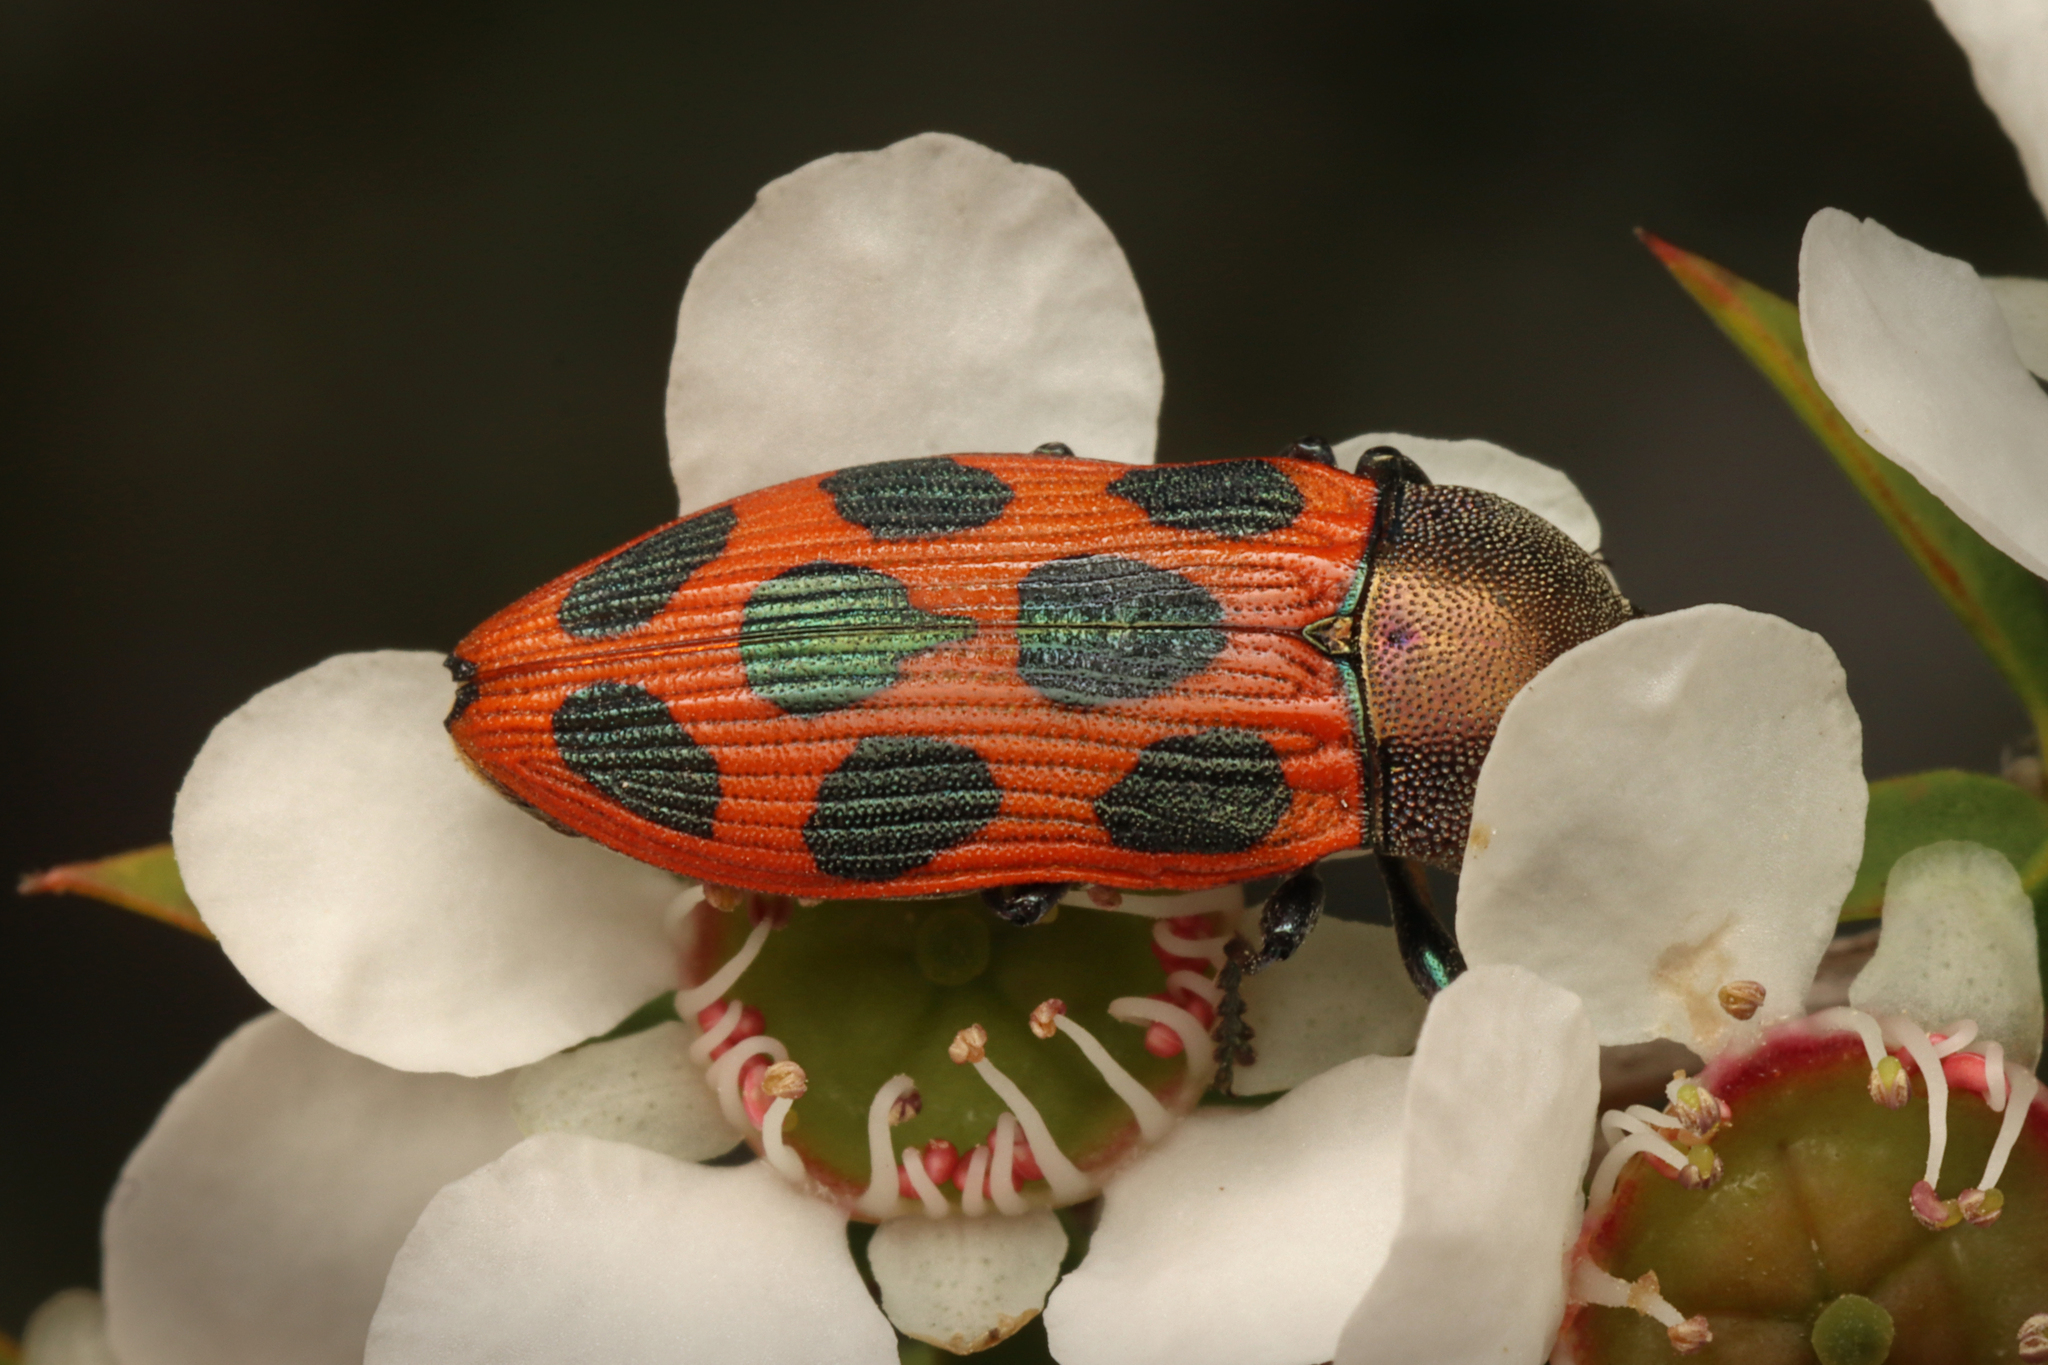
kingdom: Animalia
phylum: Arthropoda
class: Insecta
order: Coleoptera
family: Buprestidae
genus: Castiarina
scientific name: Castiarina octomaculata
